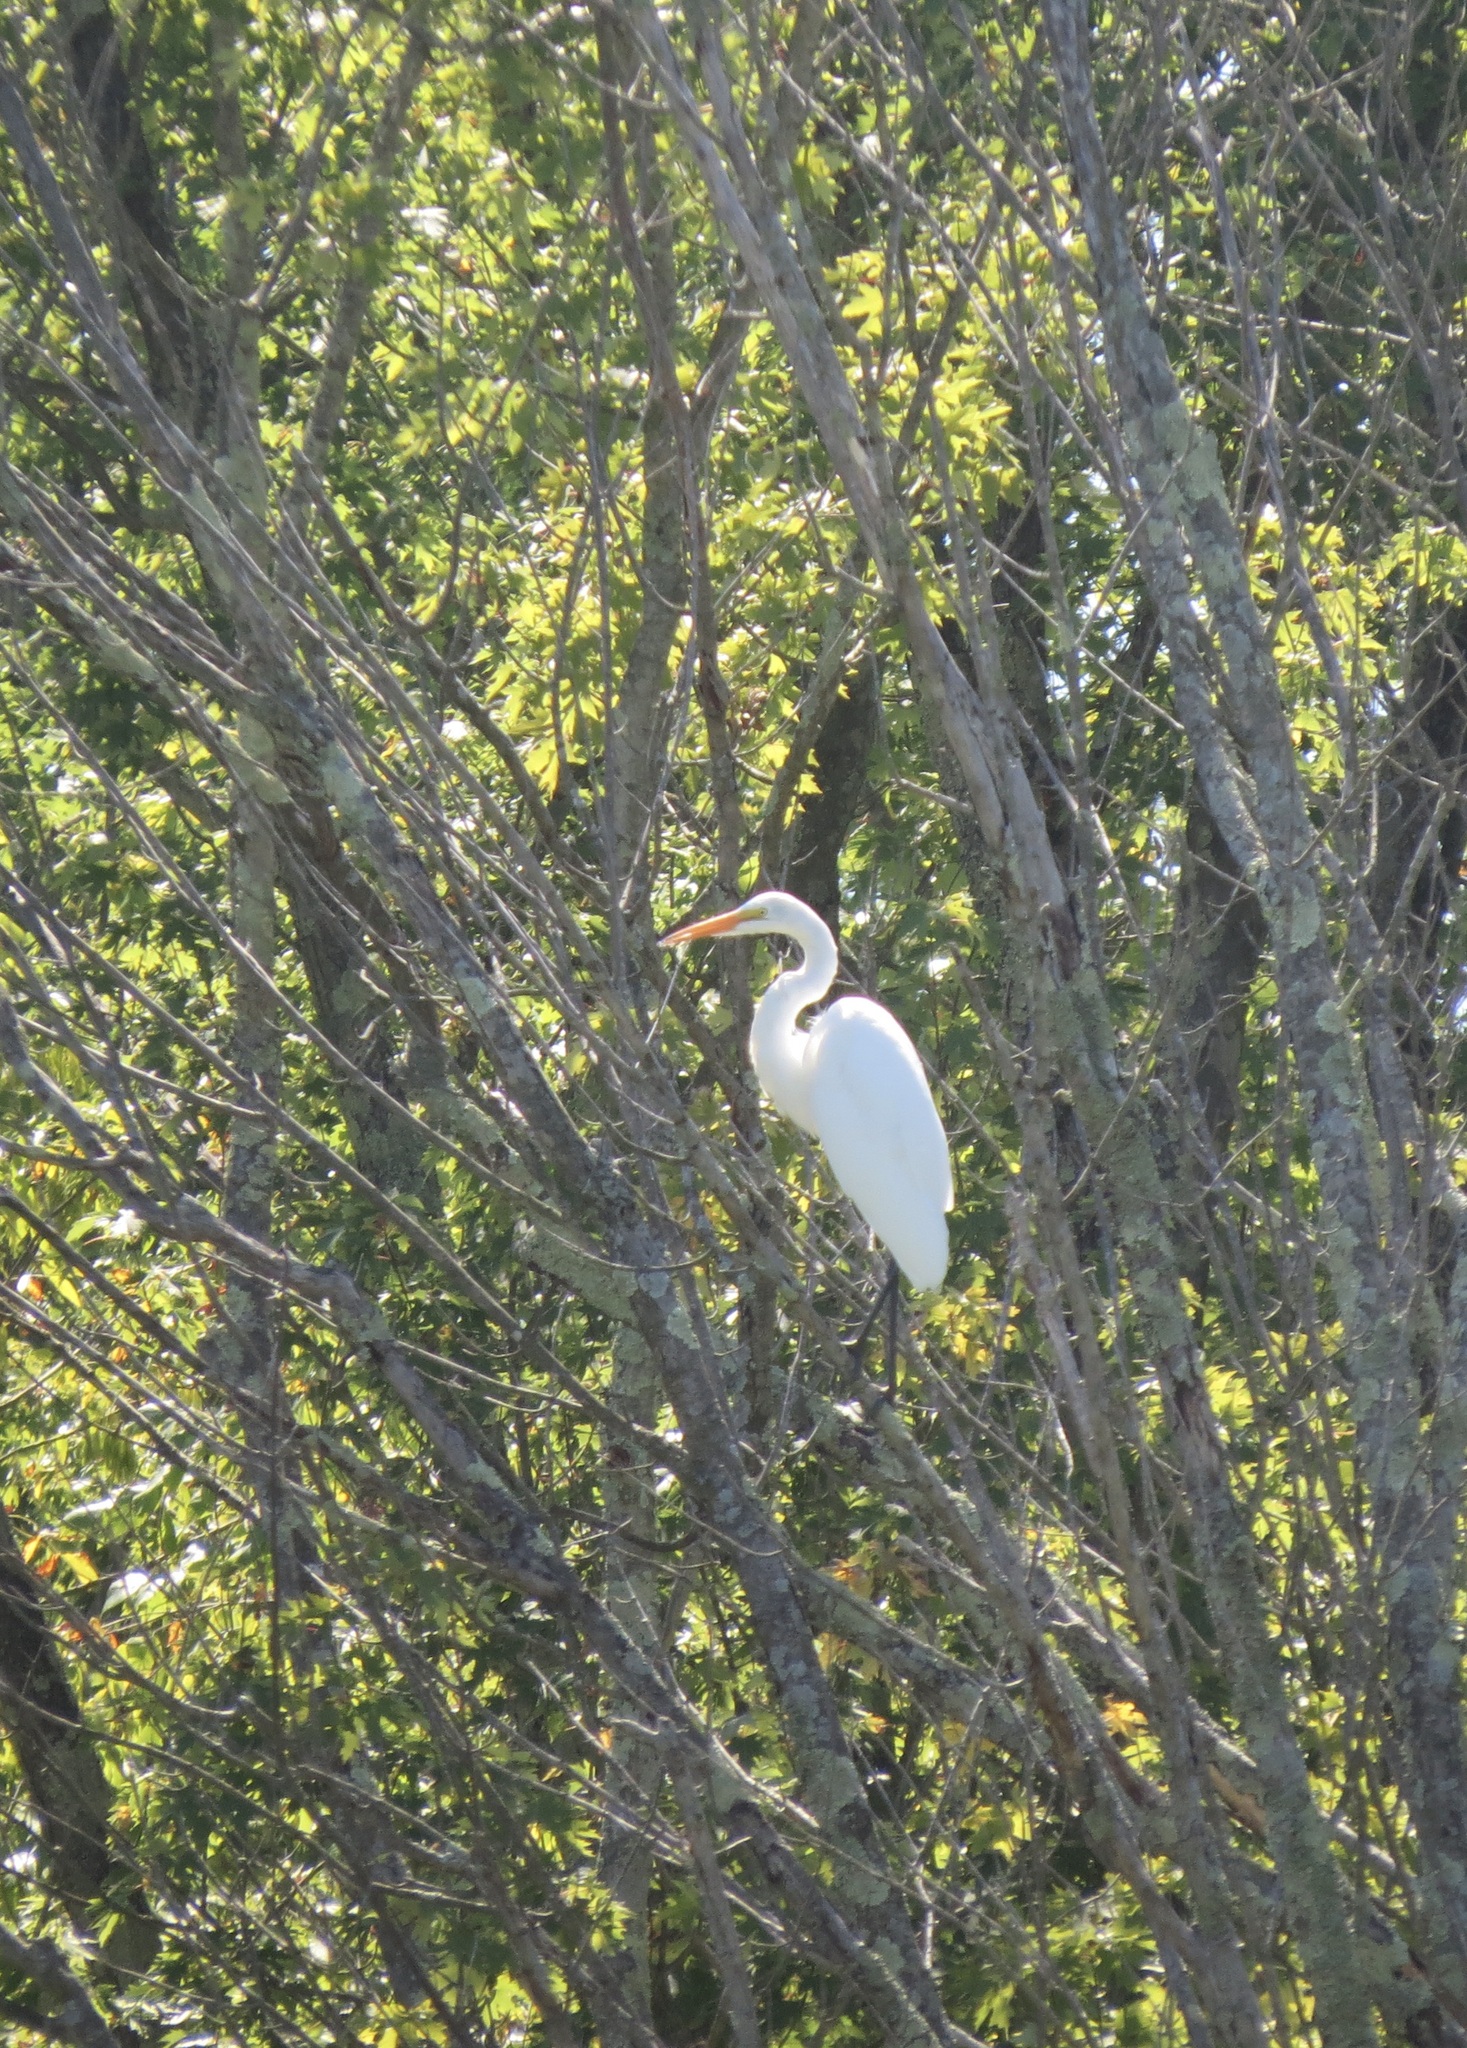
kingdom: Animalia
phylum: Chordata
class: Aves
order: Pelecaniformes
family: Ardeidae
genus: Ardea
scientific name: Ardea alba
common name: Great egret
